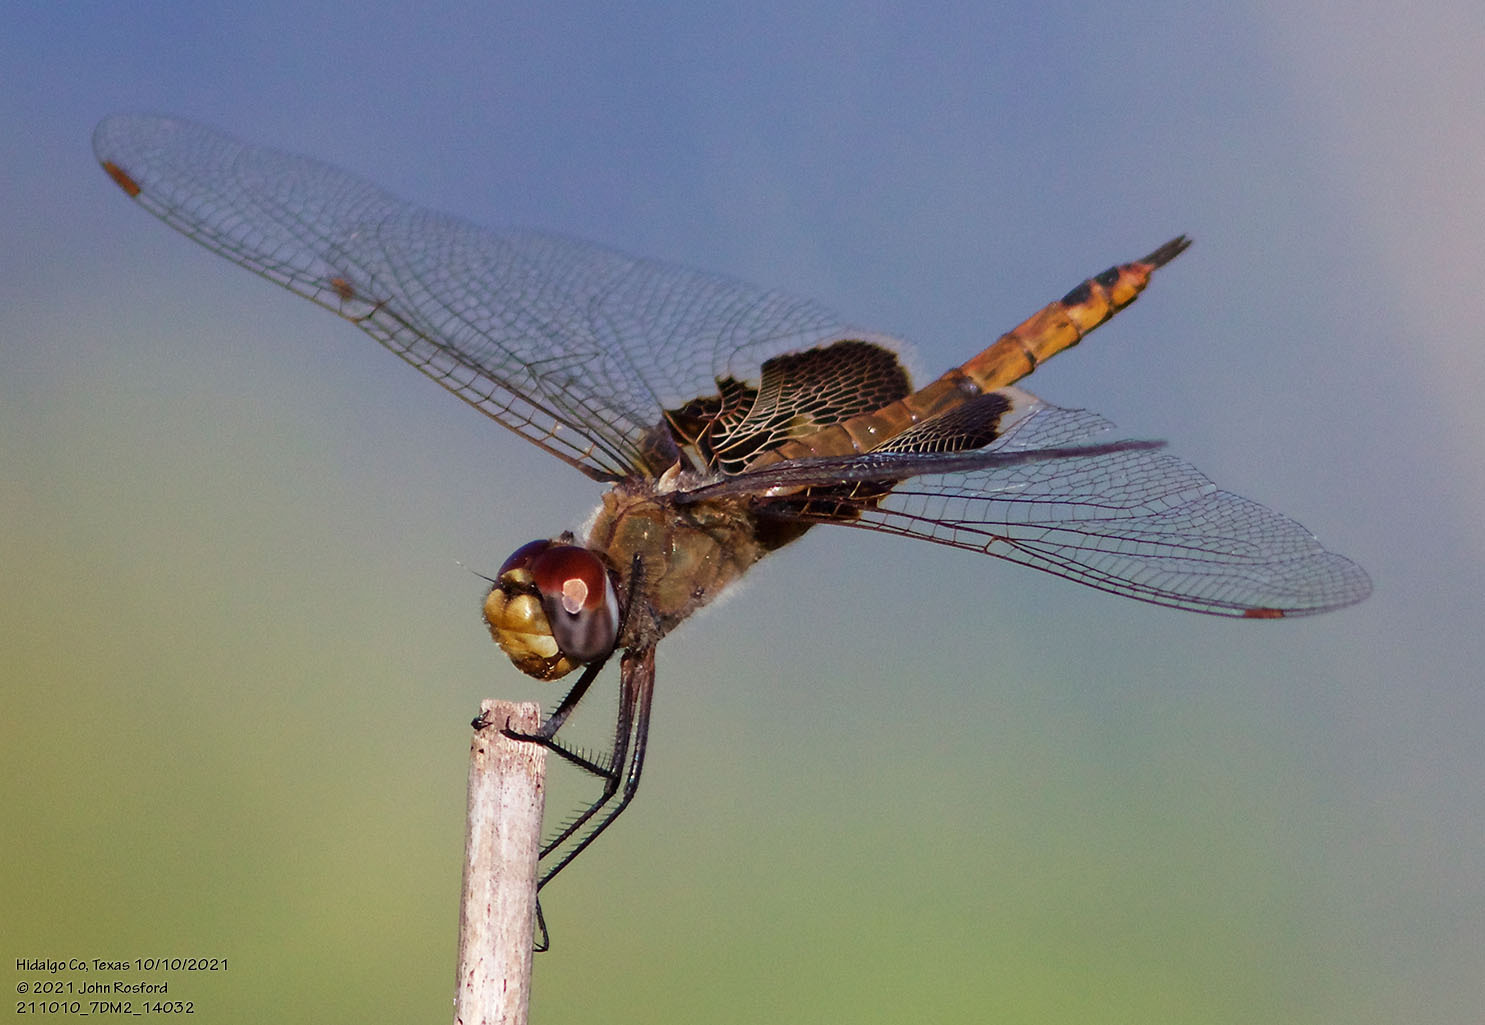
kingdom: Animalia
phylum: Arthropoda
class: Insecta
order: Odonata
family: Libellulidae
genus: Tramea
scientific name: Tramea onusta
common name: Red saddlebags
